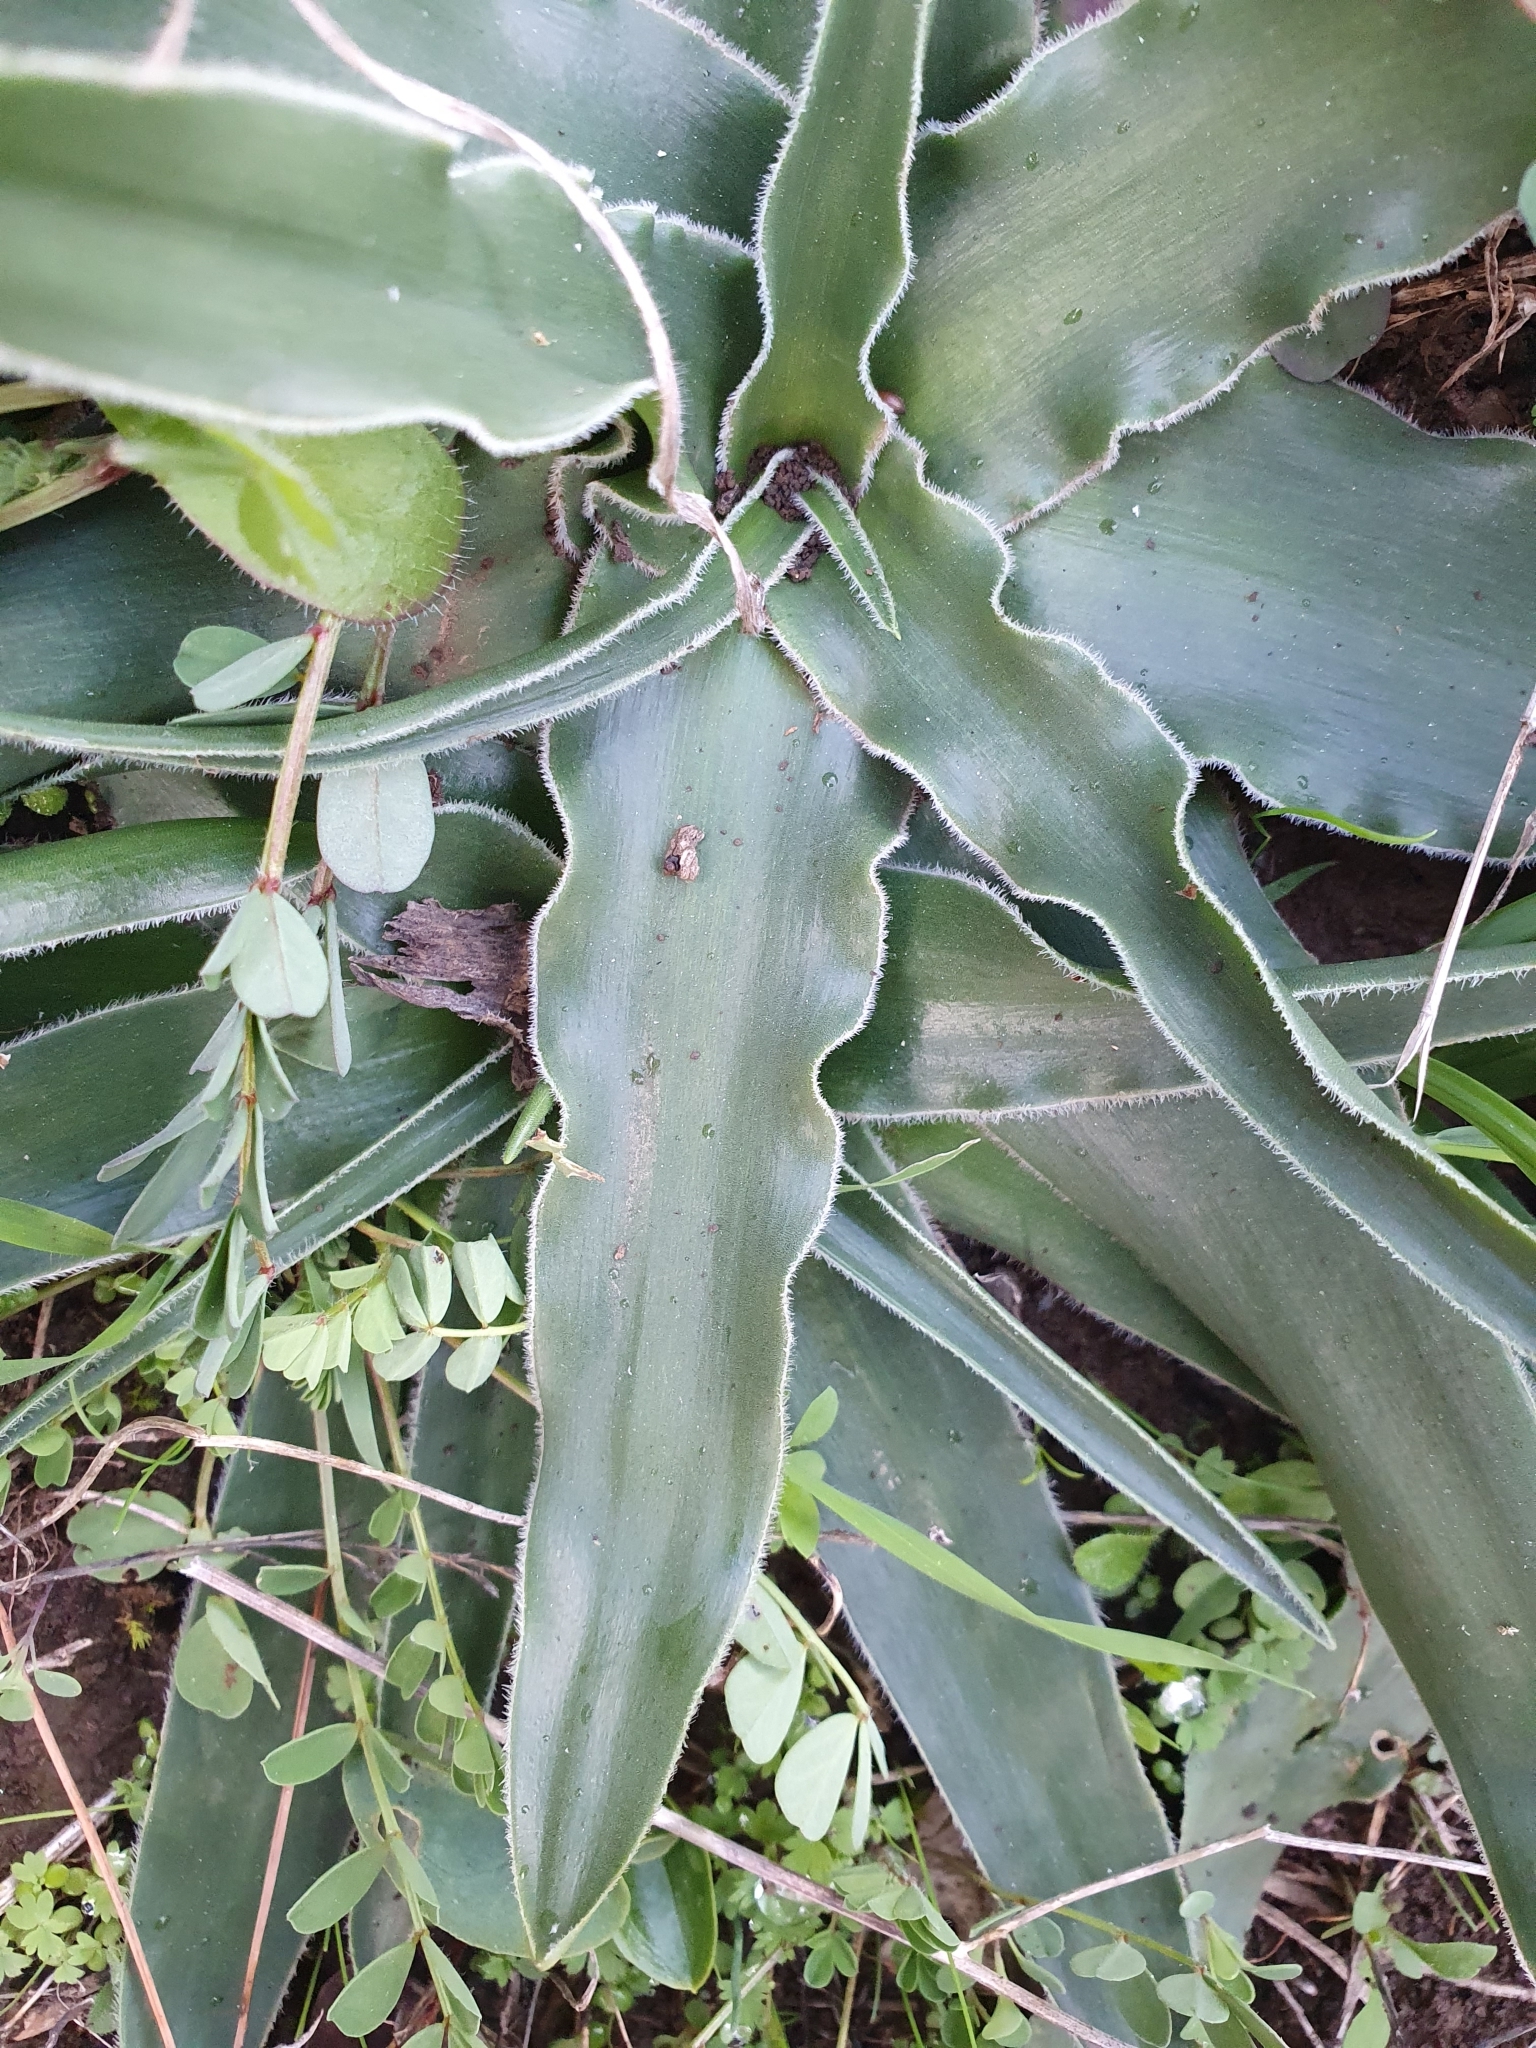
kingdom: Plantae
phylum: Tracheophyta
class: Liliopsida
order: Asparagales
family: Asparagaceae
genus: Scilla
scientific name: Scilla peruviana
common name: Portuguese squill
